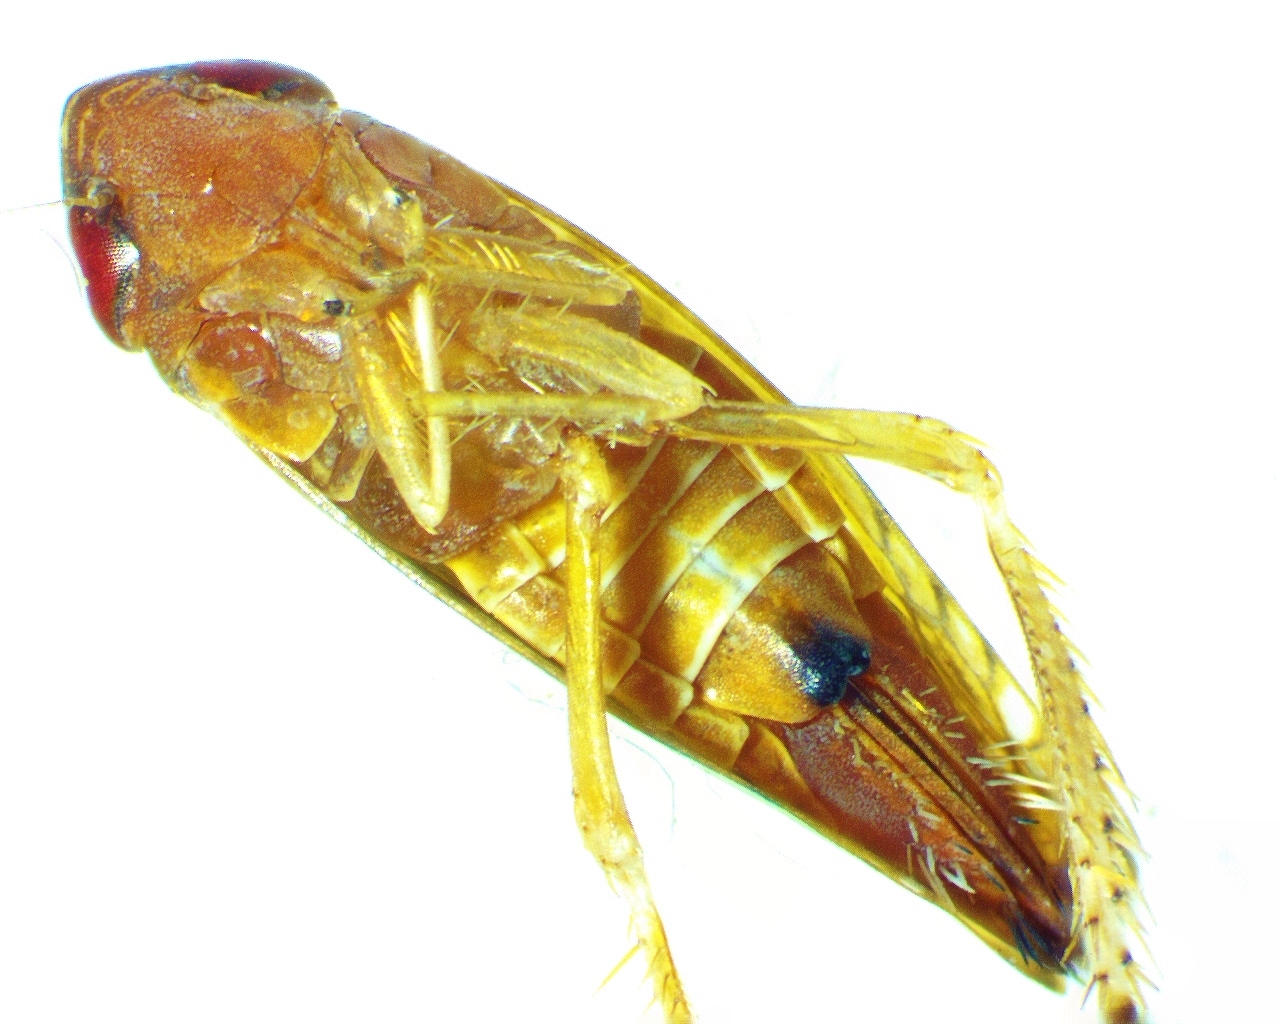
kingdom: Animalia
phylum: Arthropoda
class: Insecta
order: Hemiptera
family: Cicadellidae
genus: Scaphoideus
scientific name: Scaphoideus luteolus
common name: Whitebanded elm leafhopper
